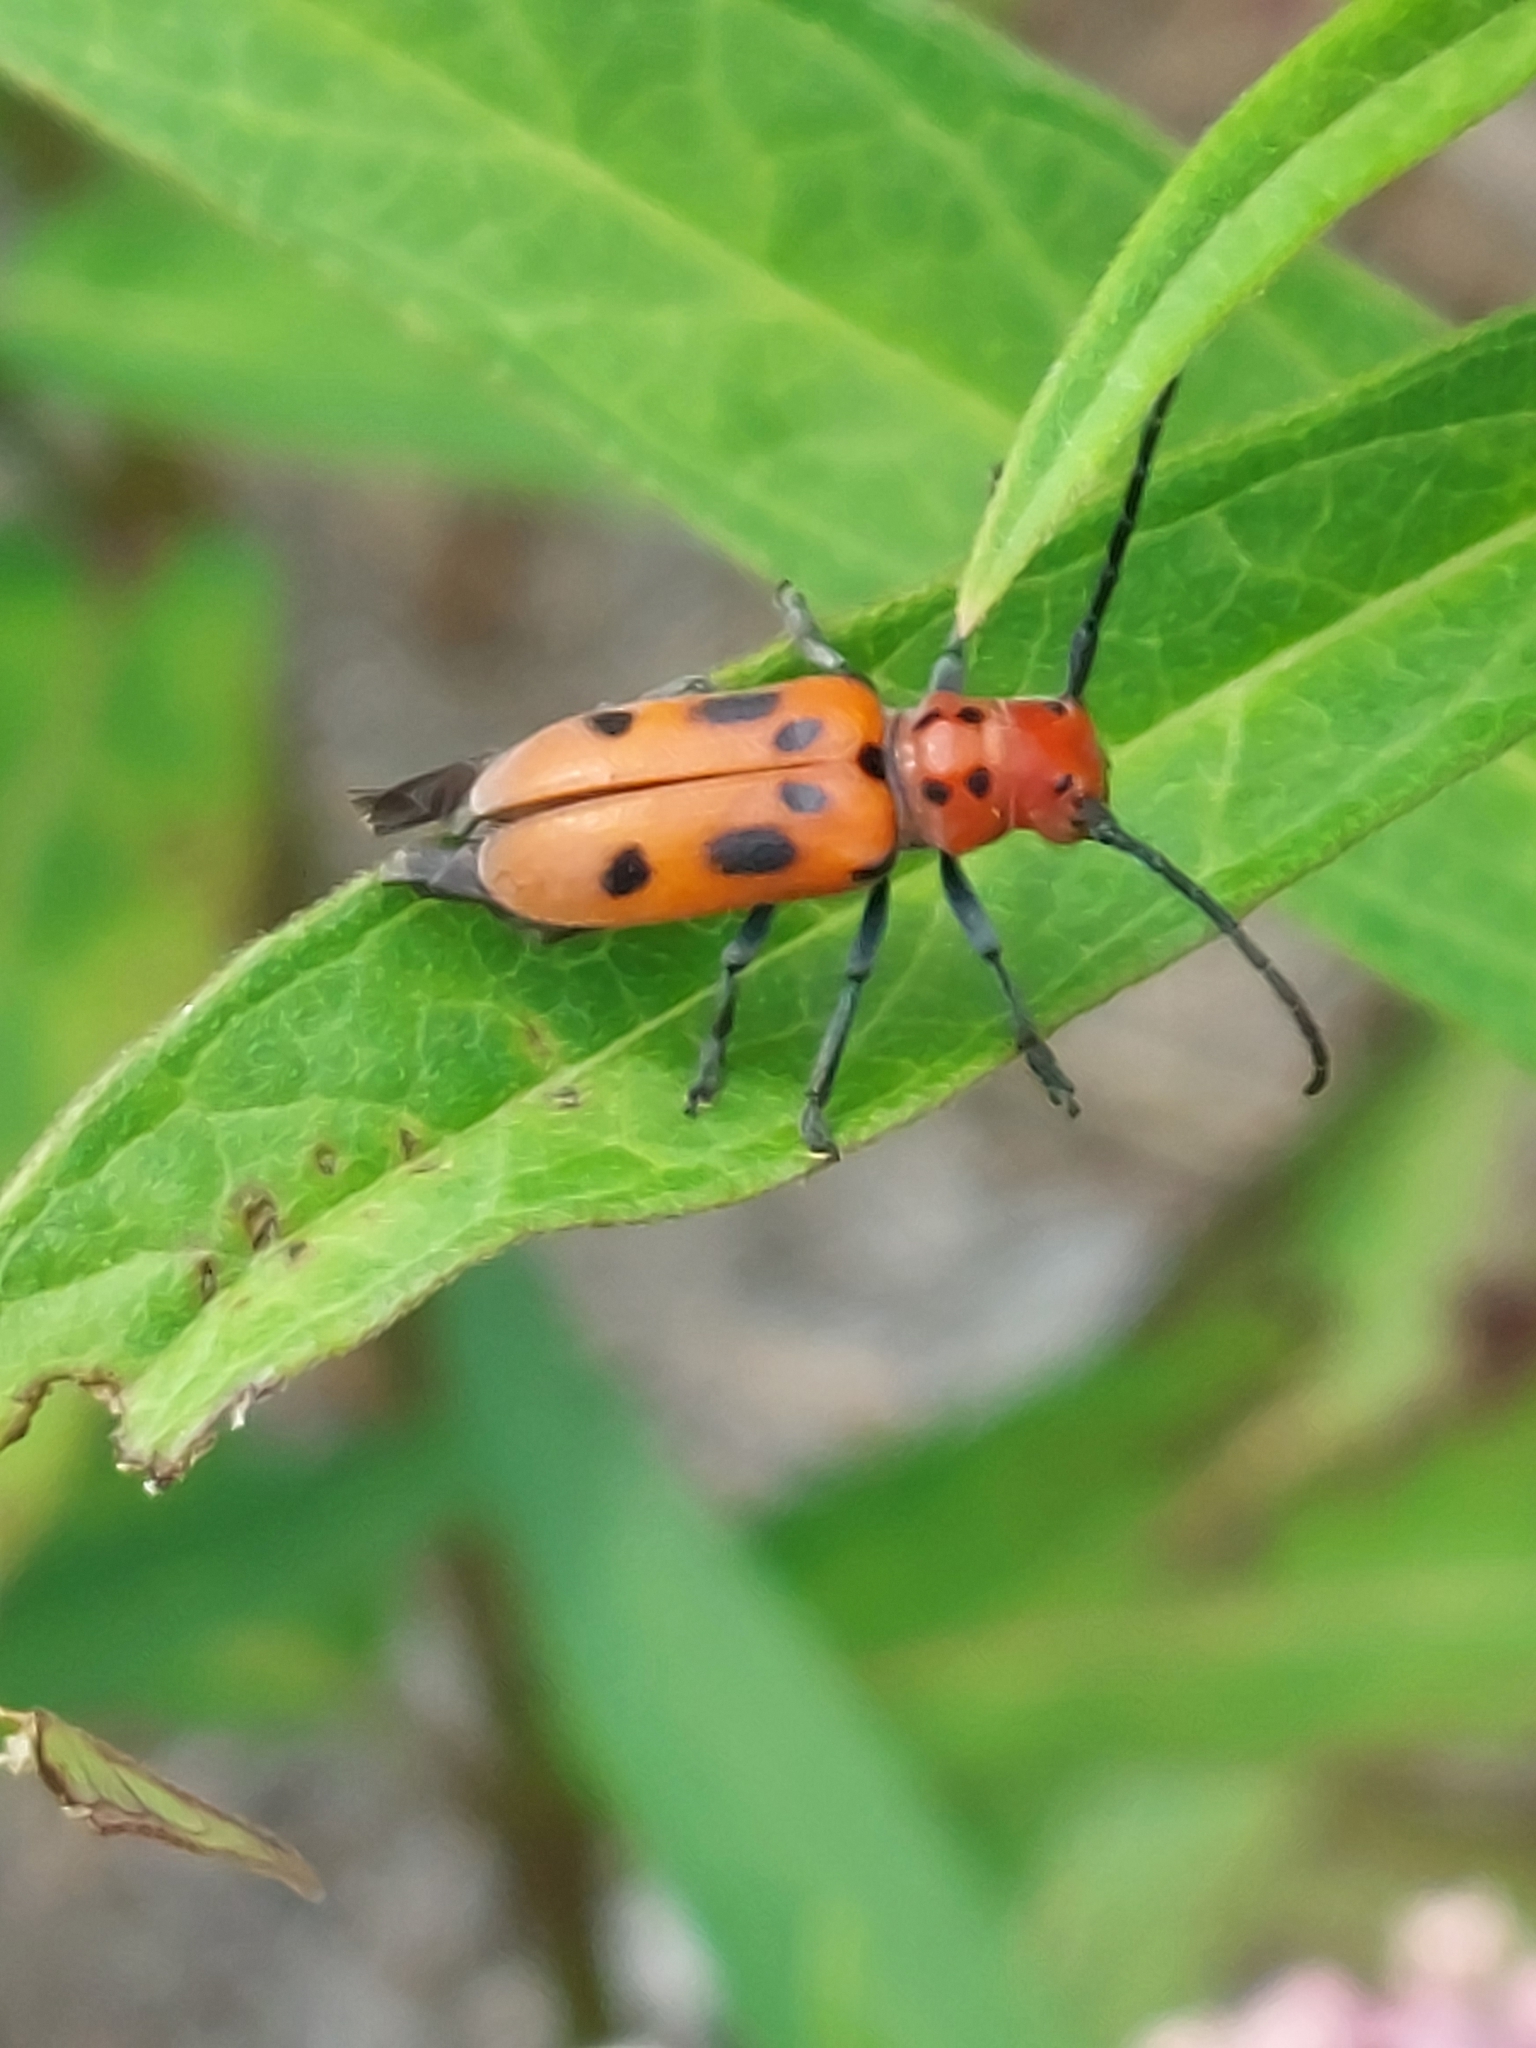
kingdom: Animalia
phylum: Arthropoda
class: Insecta
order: Coleoptera
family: Cerambycidae
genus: Tetraopes
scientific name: Tetraopes tetrophthalmus
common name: Red milkweed beetle
